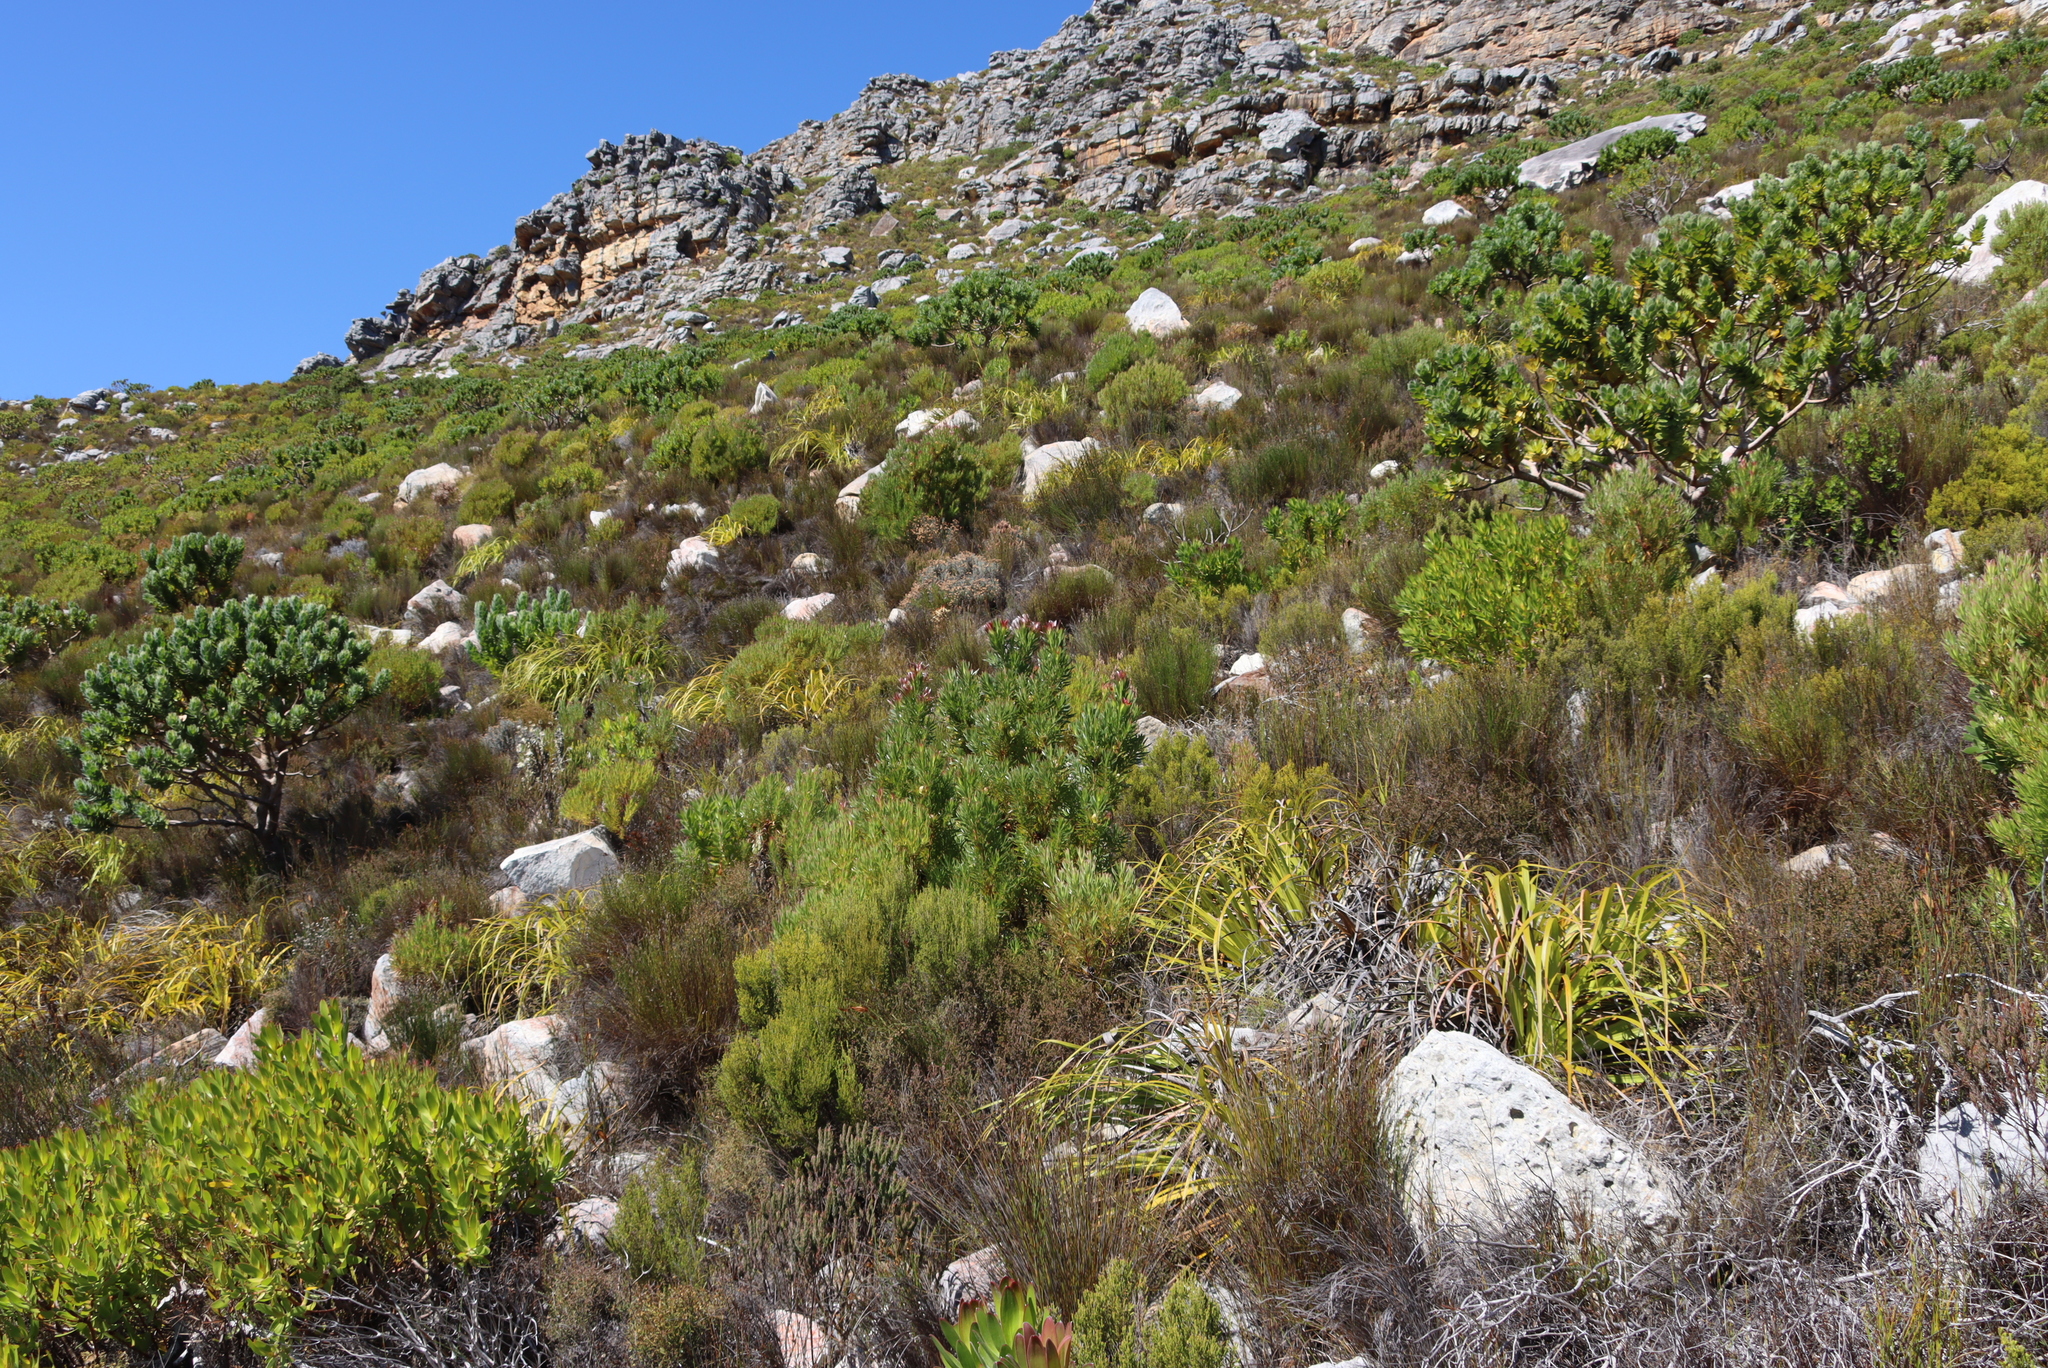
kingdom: Plantae
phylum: Tracheophyta
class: Magnoliopsida
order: Proteales
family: Proteaceae
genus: Leucadendron
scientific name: Leucadendron xanthoconus
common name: Sickle-leaf conebush
